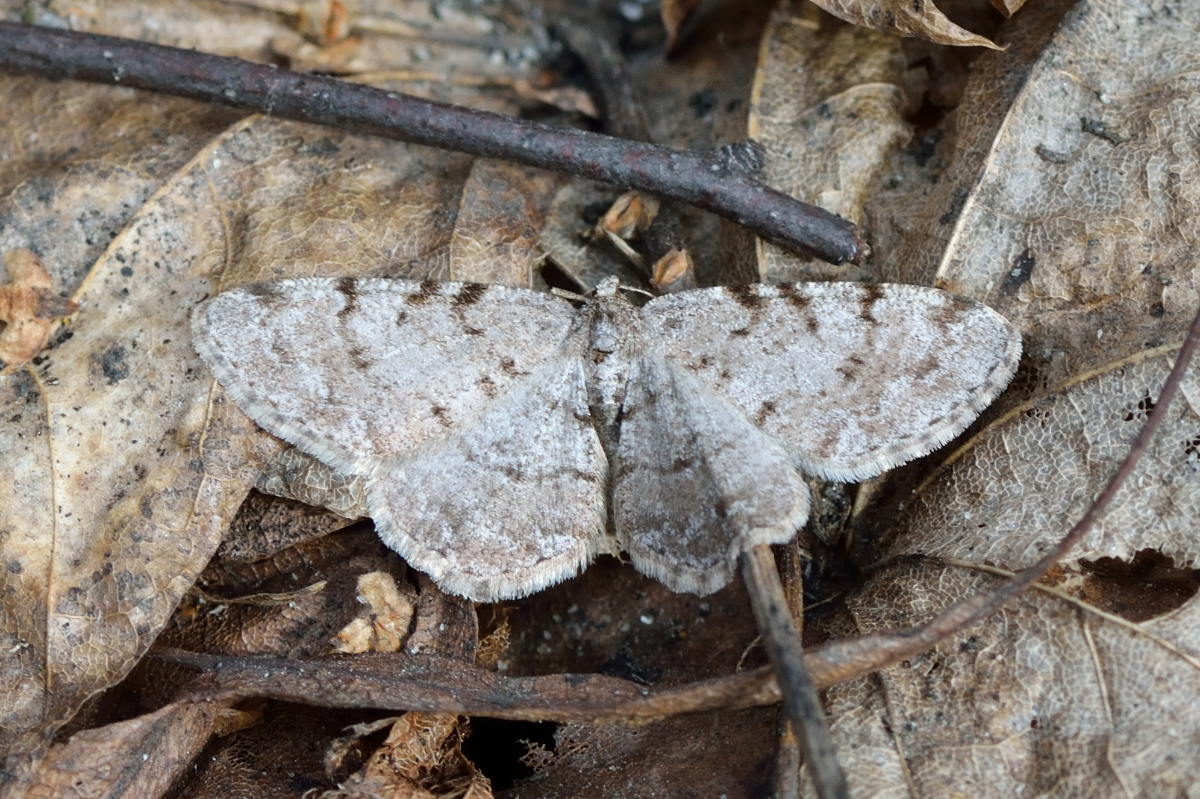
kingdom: Animalia
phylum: Arthropoda
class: Insecta
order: Lepidoptera
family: Geometridae
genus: Aethalura
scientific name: Aethalura punctulata
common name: Grey birch
